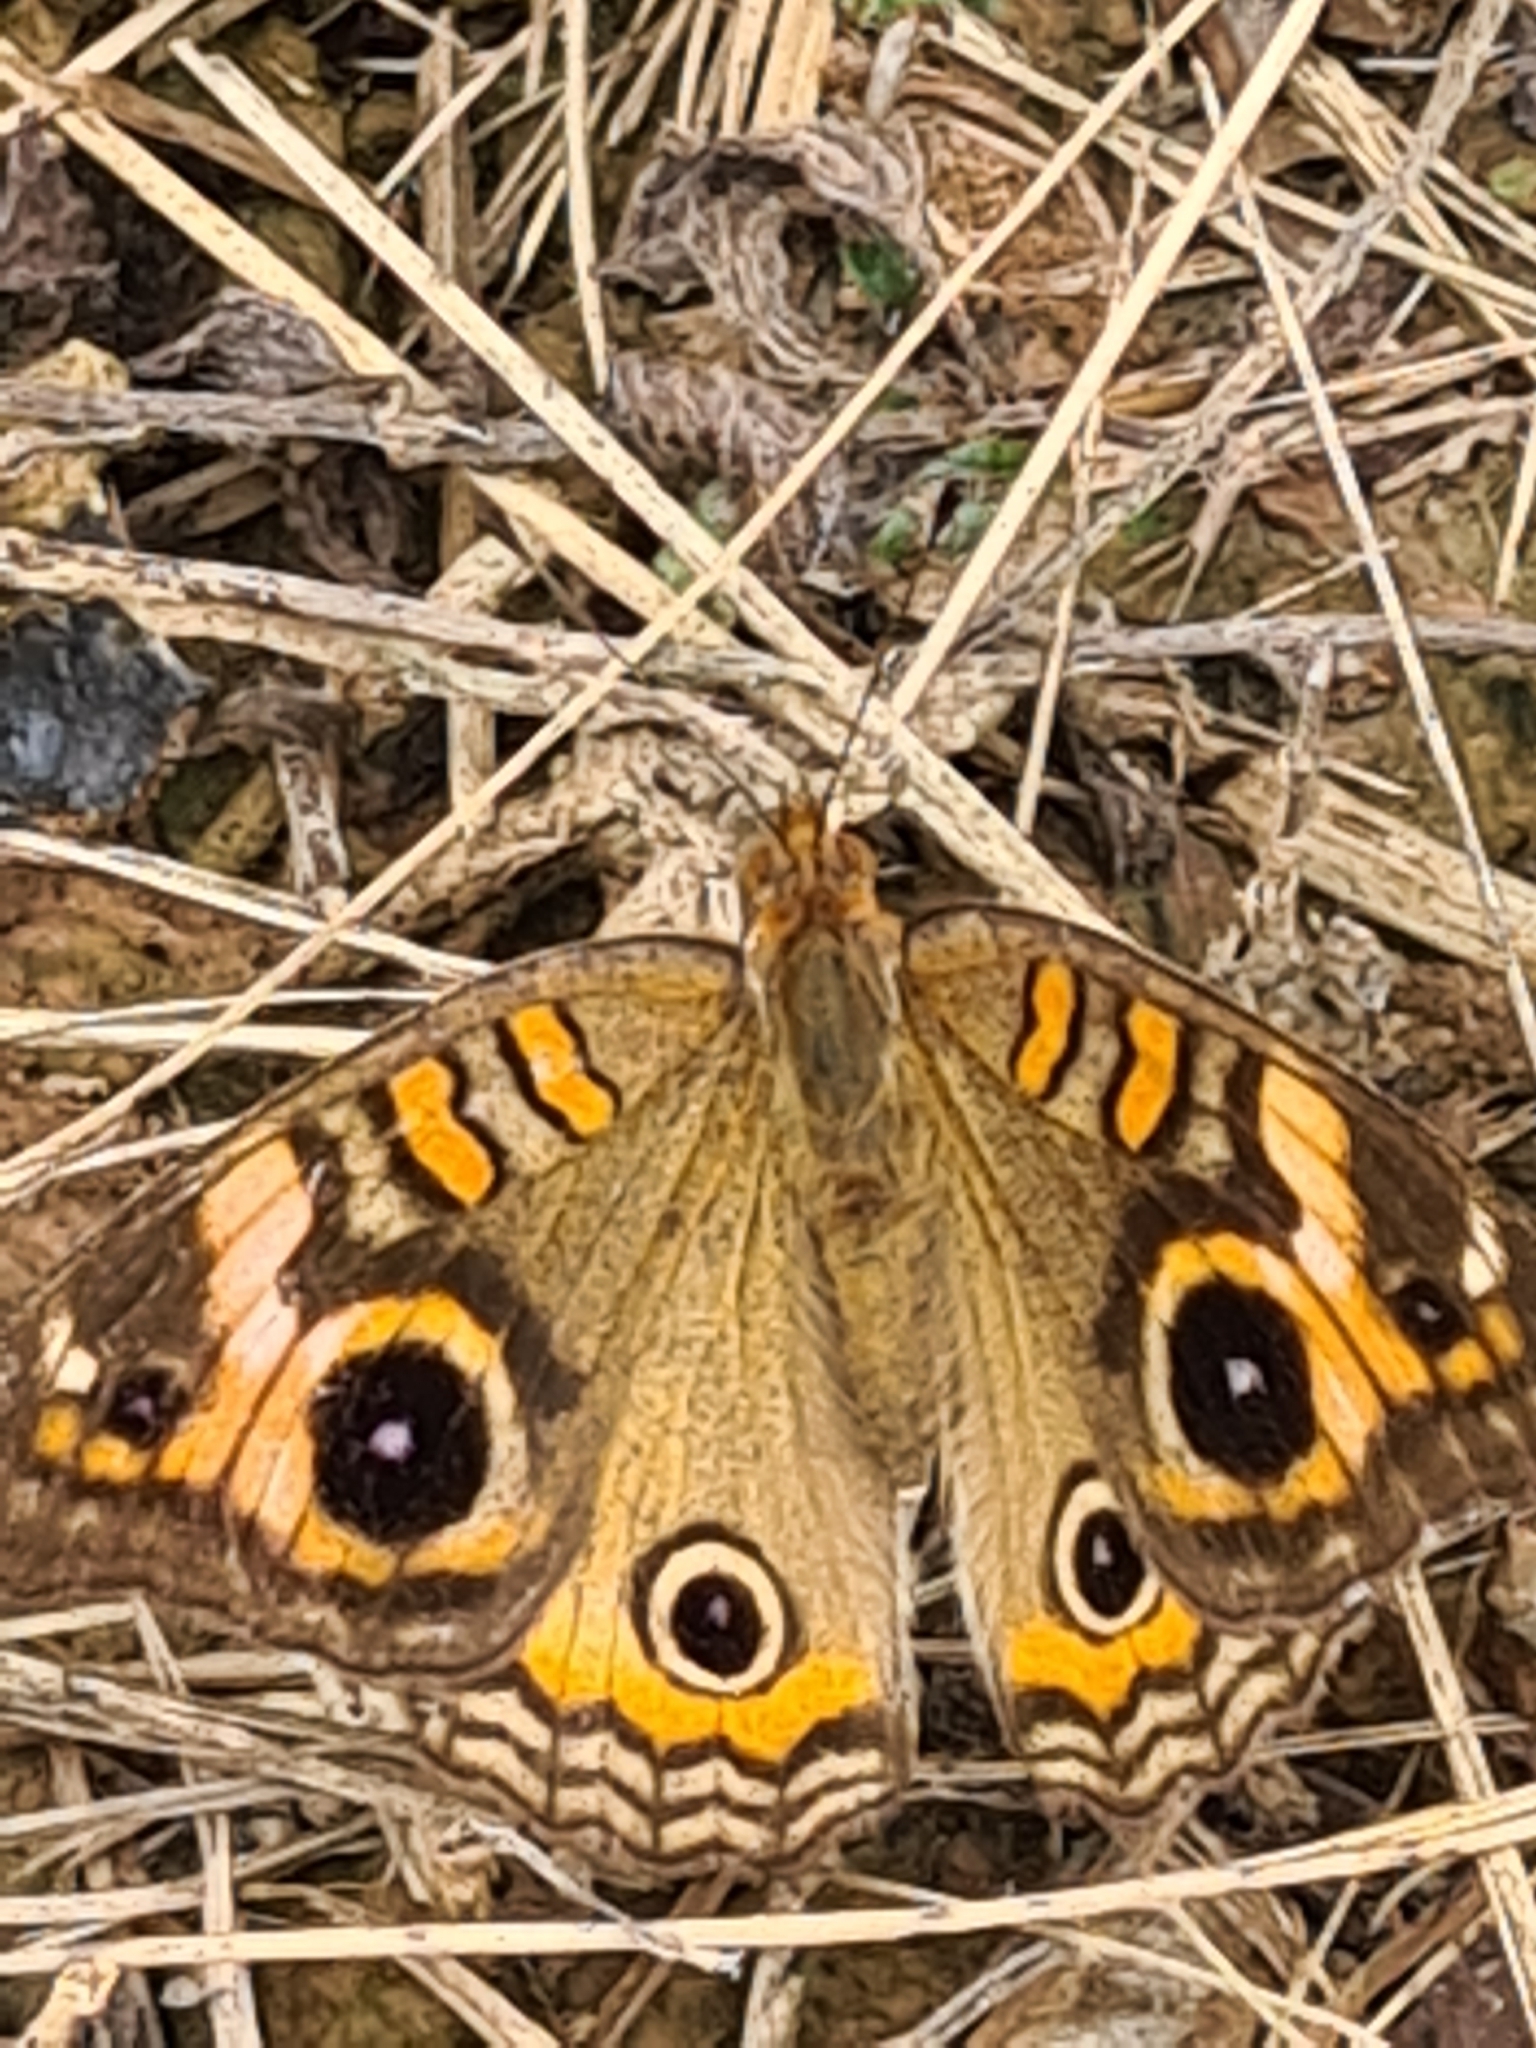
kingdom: Animalia
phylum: Arthropoda
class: Insecta
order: Lepidoptera
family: Nymphalidae
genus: Junonia
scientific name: Junonia evarete
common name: Black mangrove buckeye
